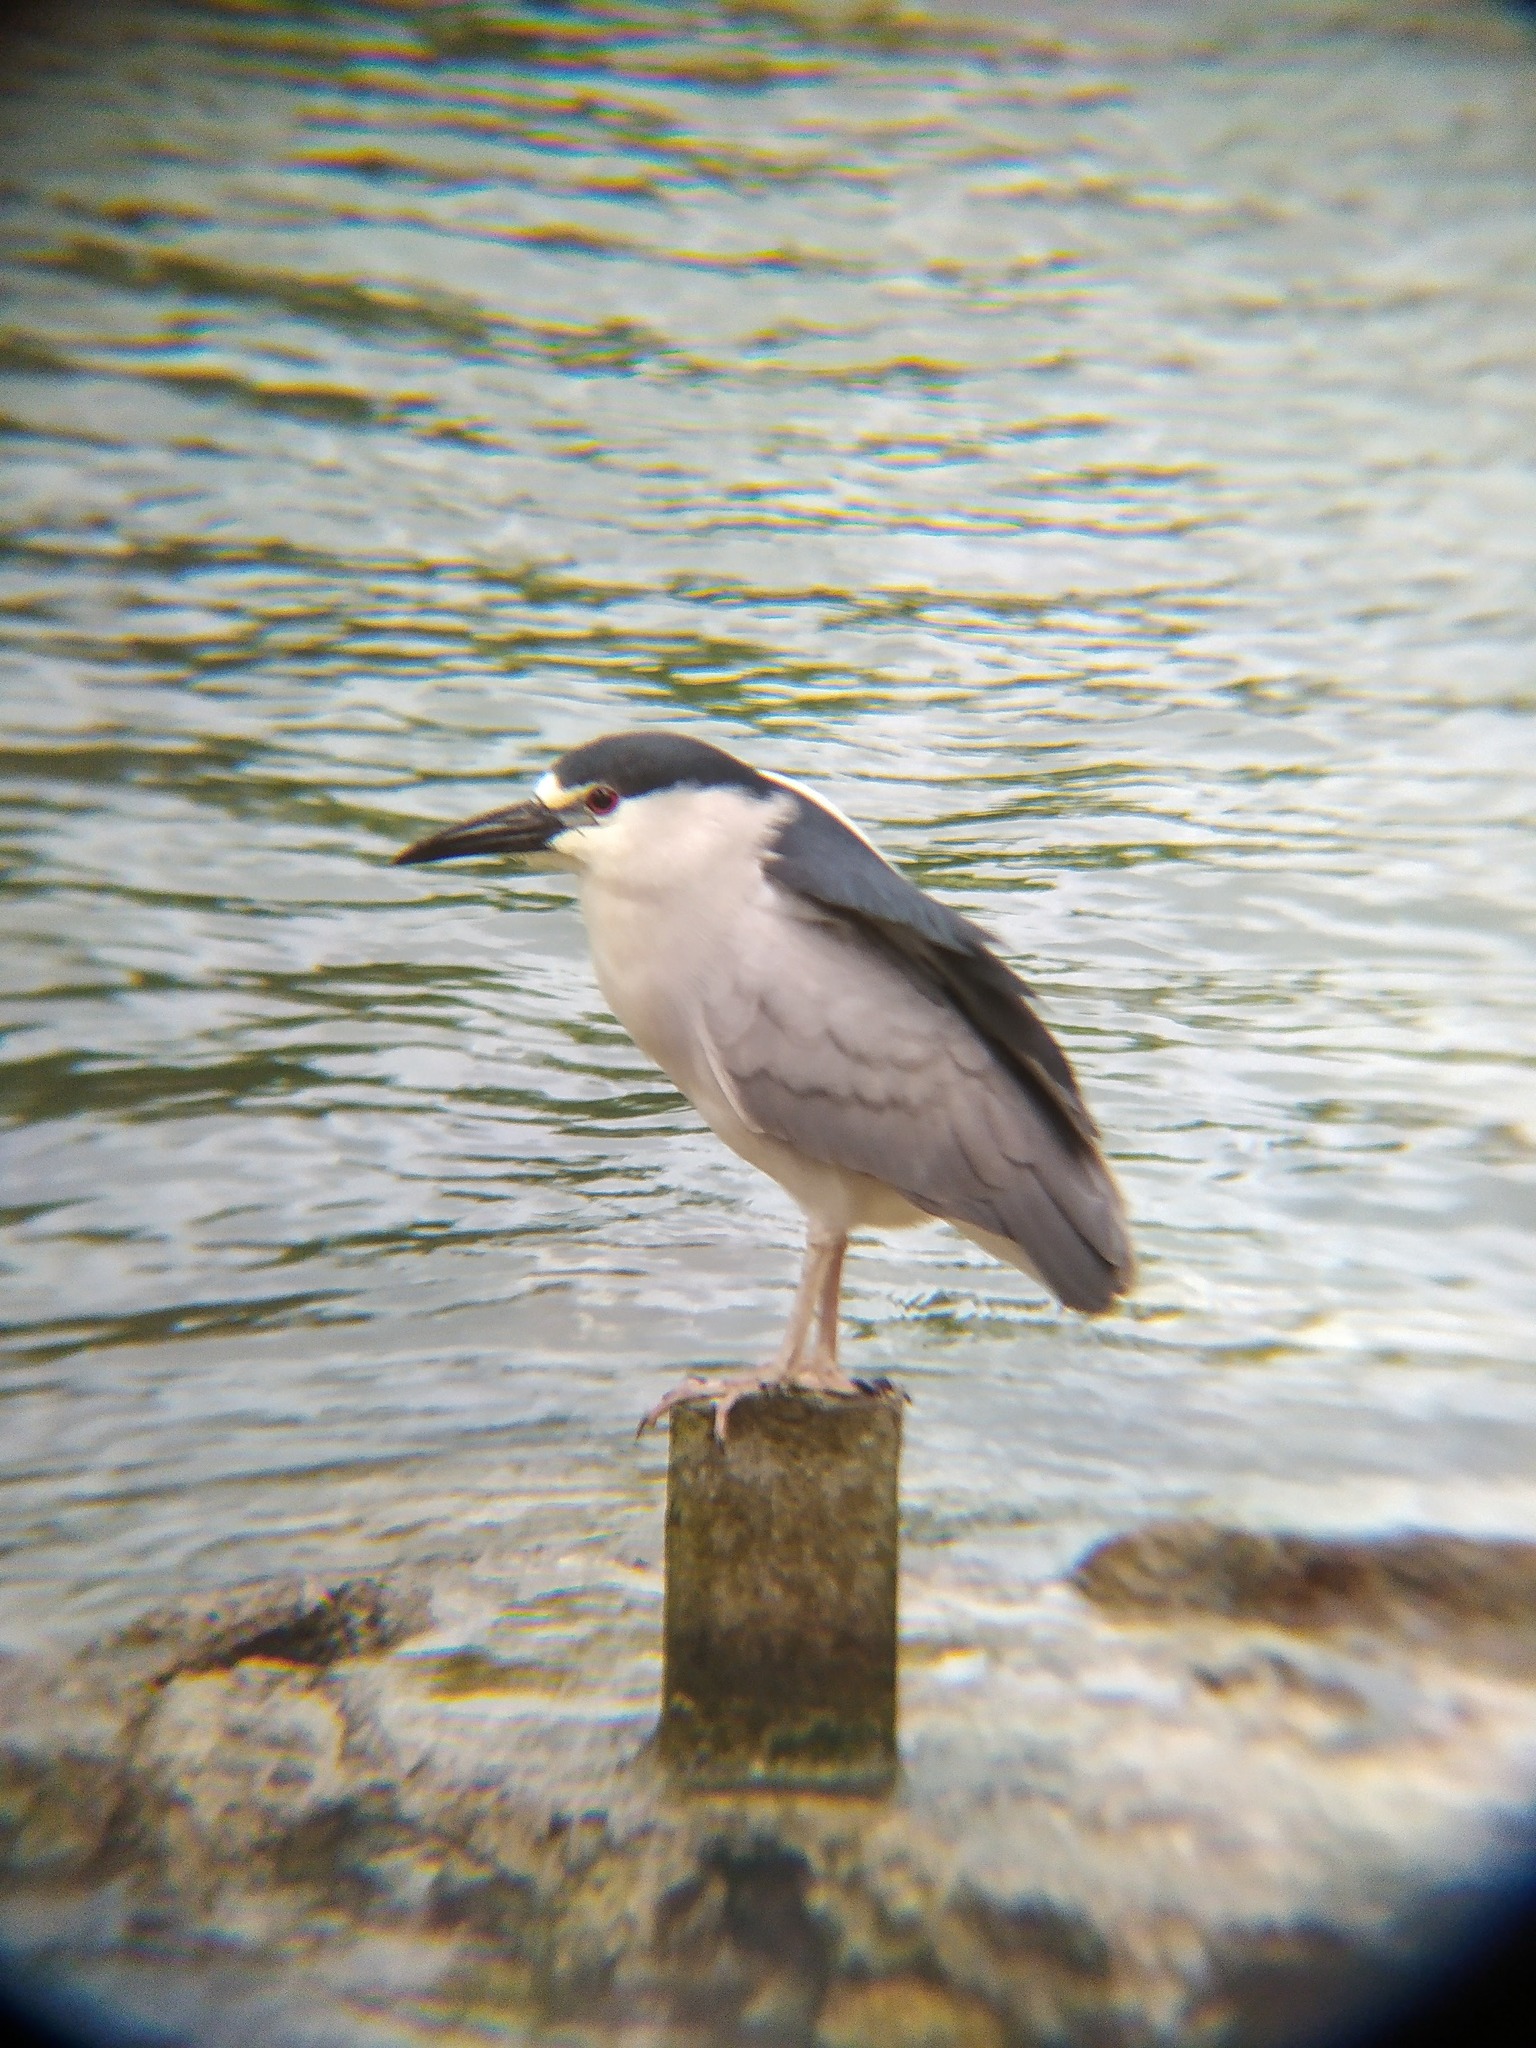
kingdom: Animalia
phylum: Chordata
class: Aves
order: Pelecaniformes
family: Ardeidae
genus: Nycticorax
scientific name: Nycticorax nycticorax
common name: Black-crowned night heron
